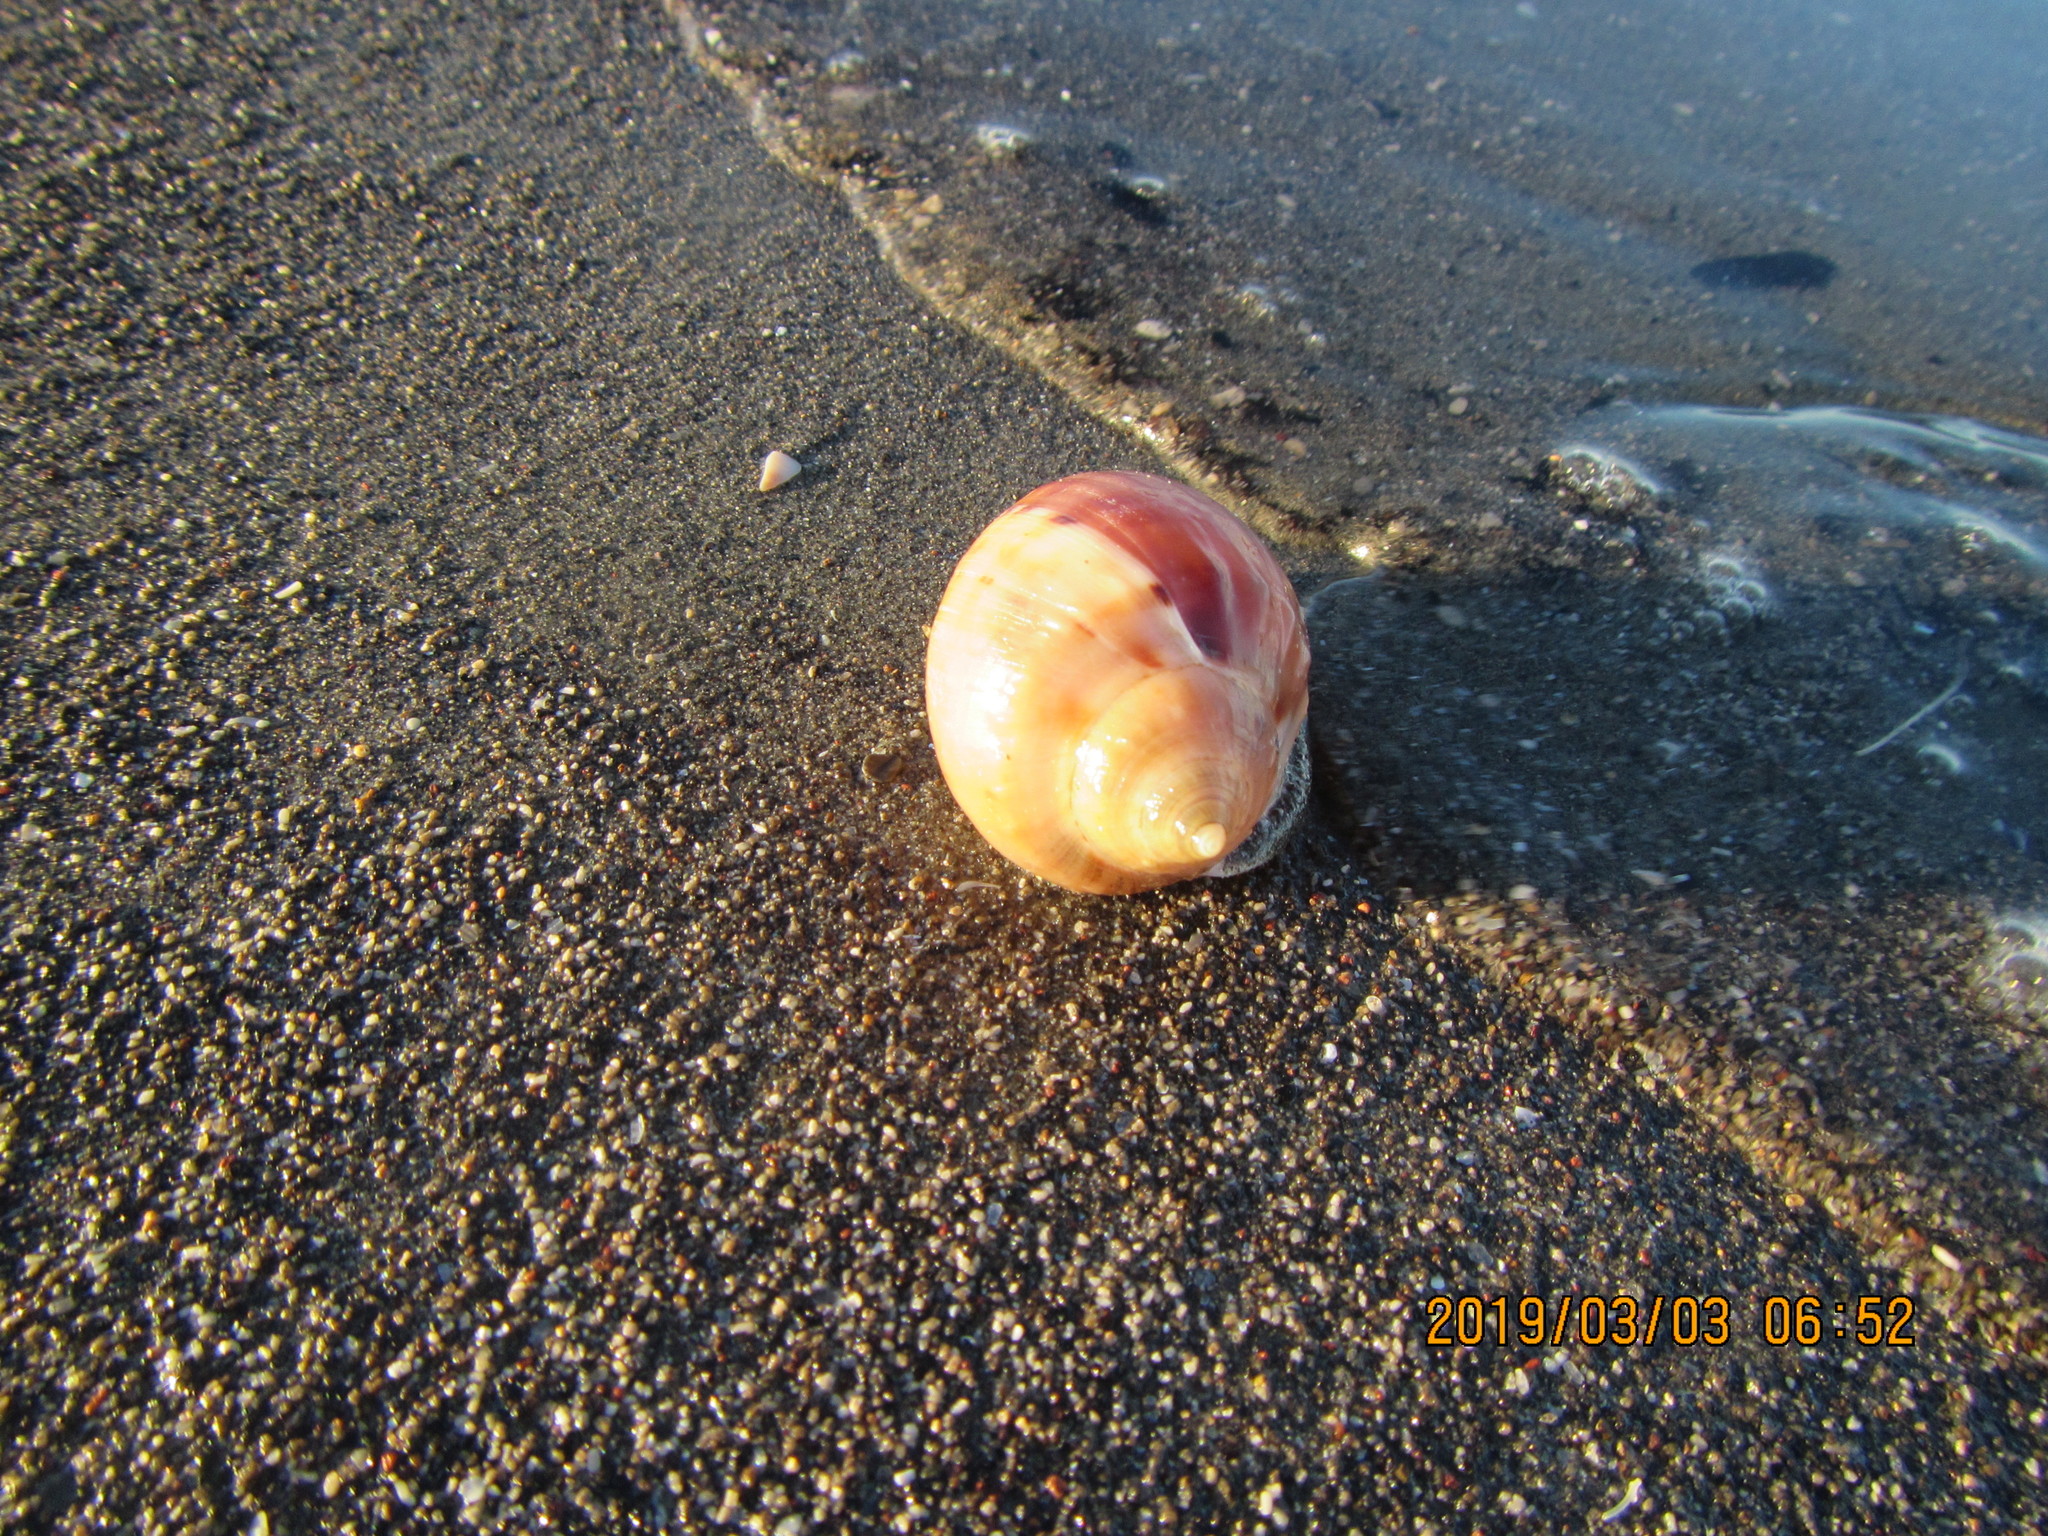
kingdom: Animalia
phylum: Mollusca
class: Gastropoda
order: Littorinimorpha
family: Cassidae
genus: Semicassis
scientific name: Semicassis pyrum
